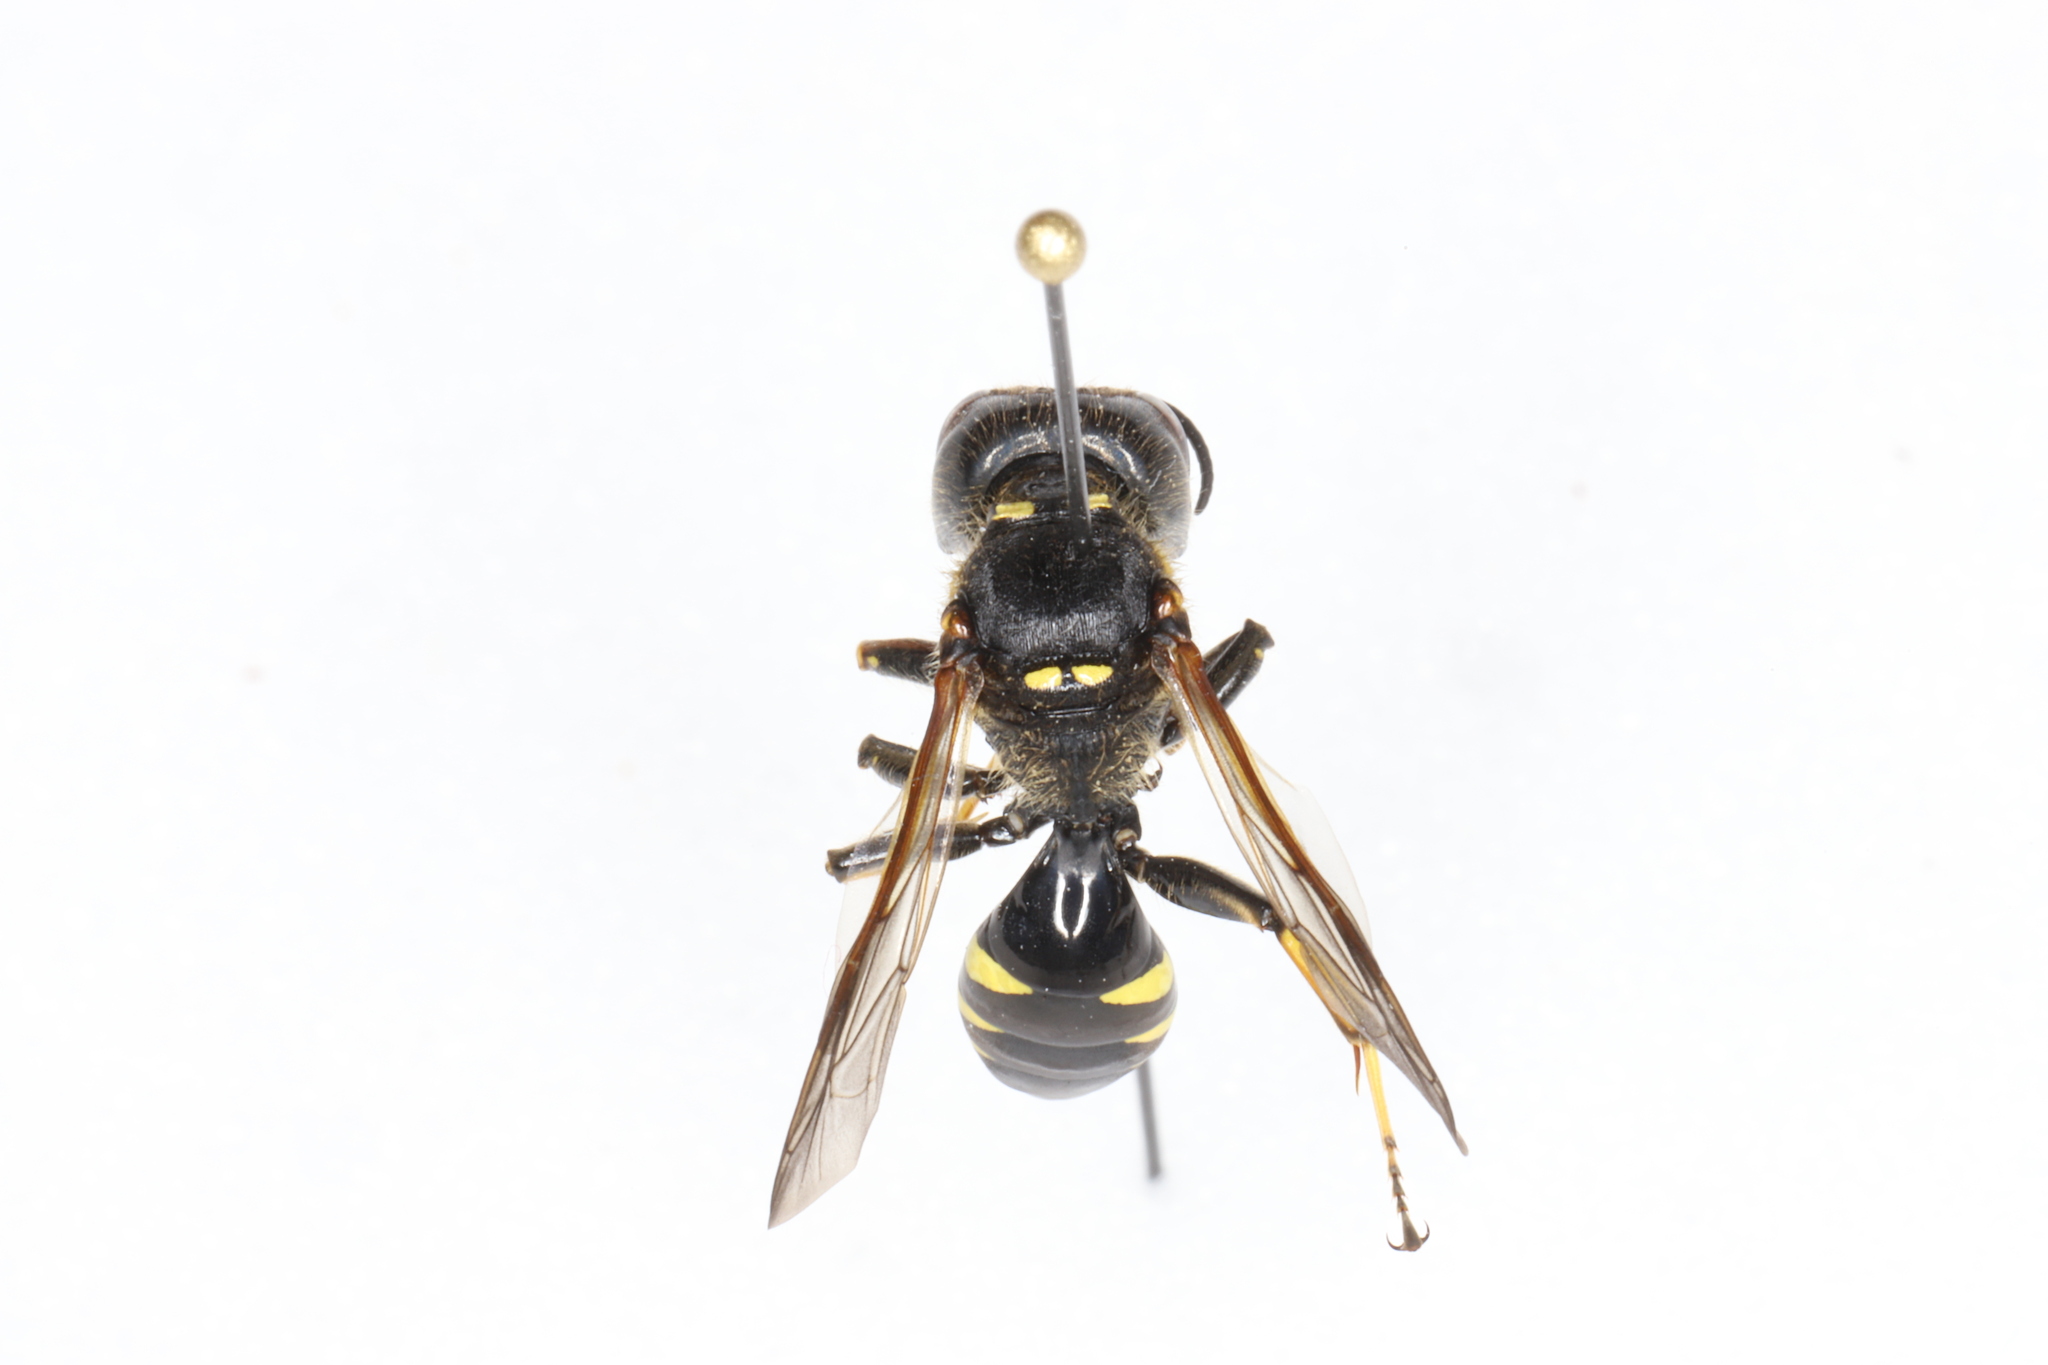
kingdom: Animalia
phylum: Arthropoda
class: Insecta
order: Hymenoptera
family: Crabronidae
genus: Ectemnius
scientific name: Ectemnius maculosus
